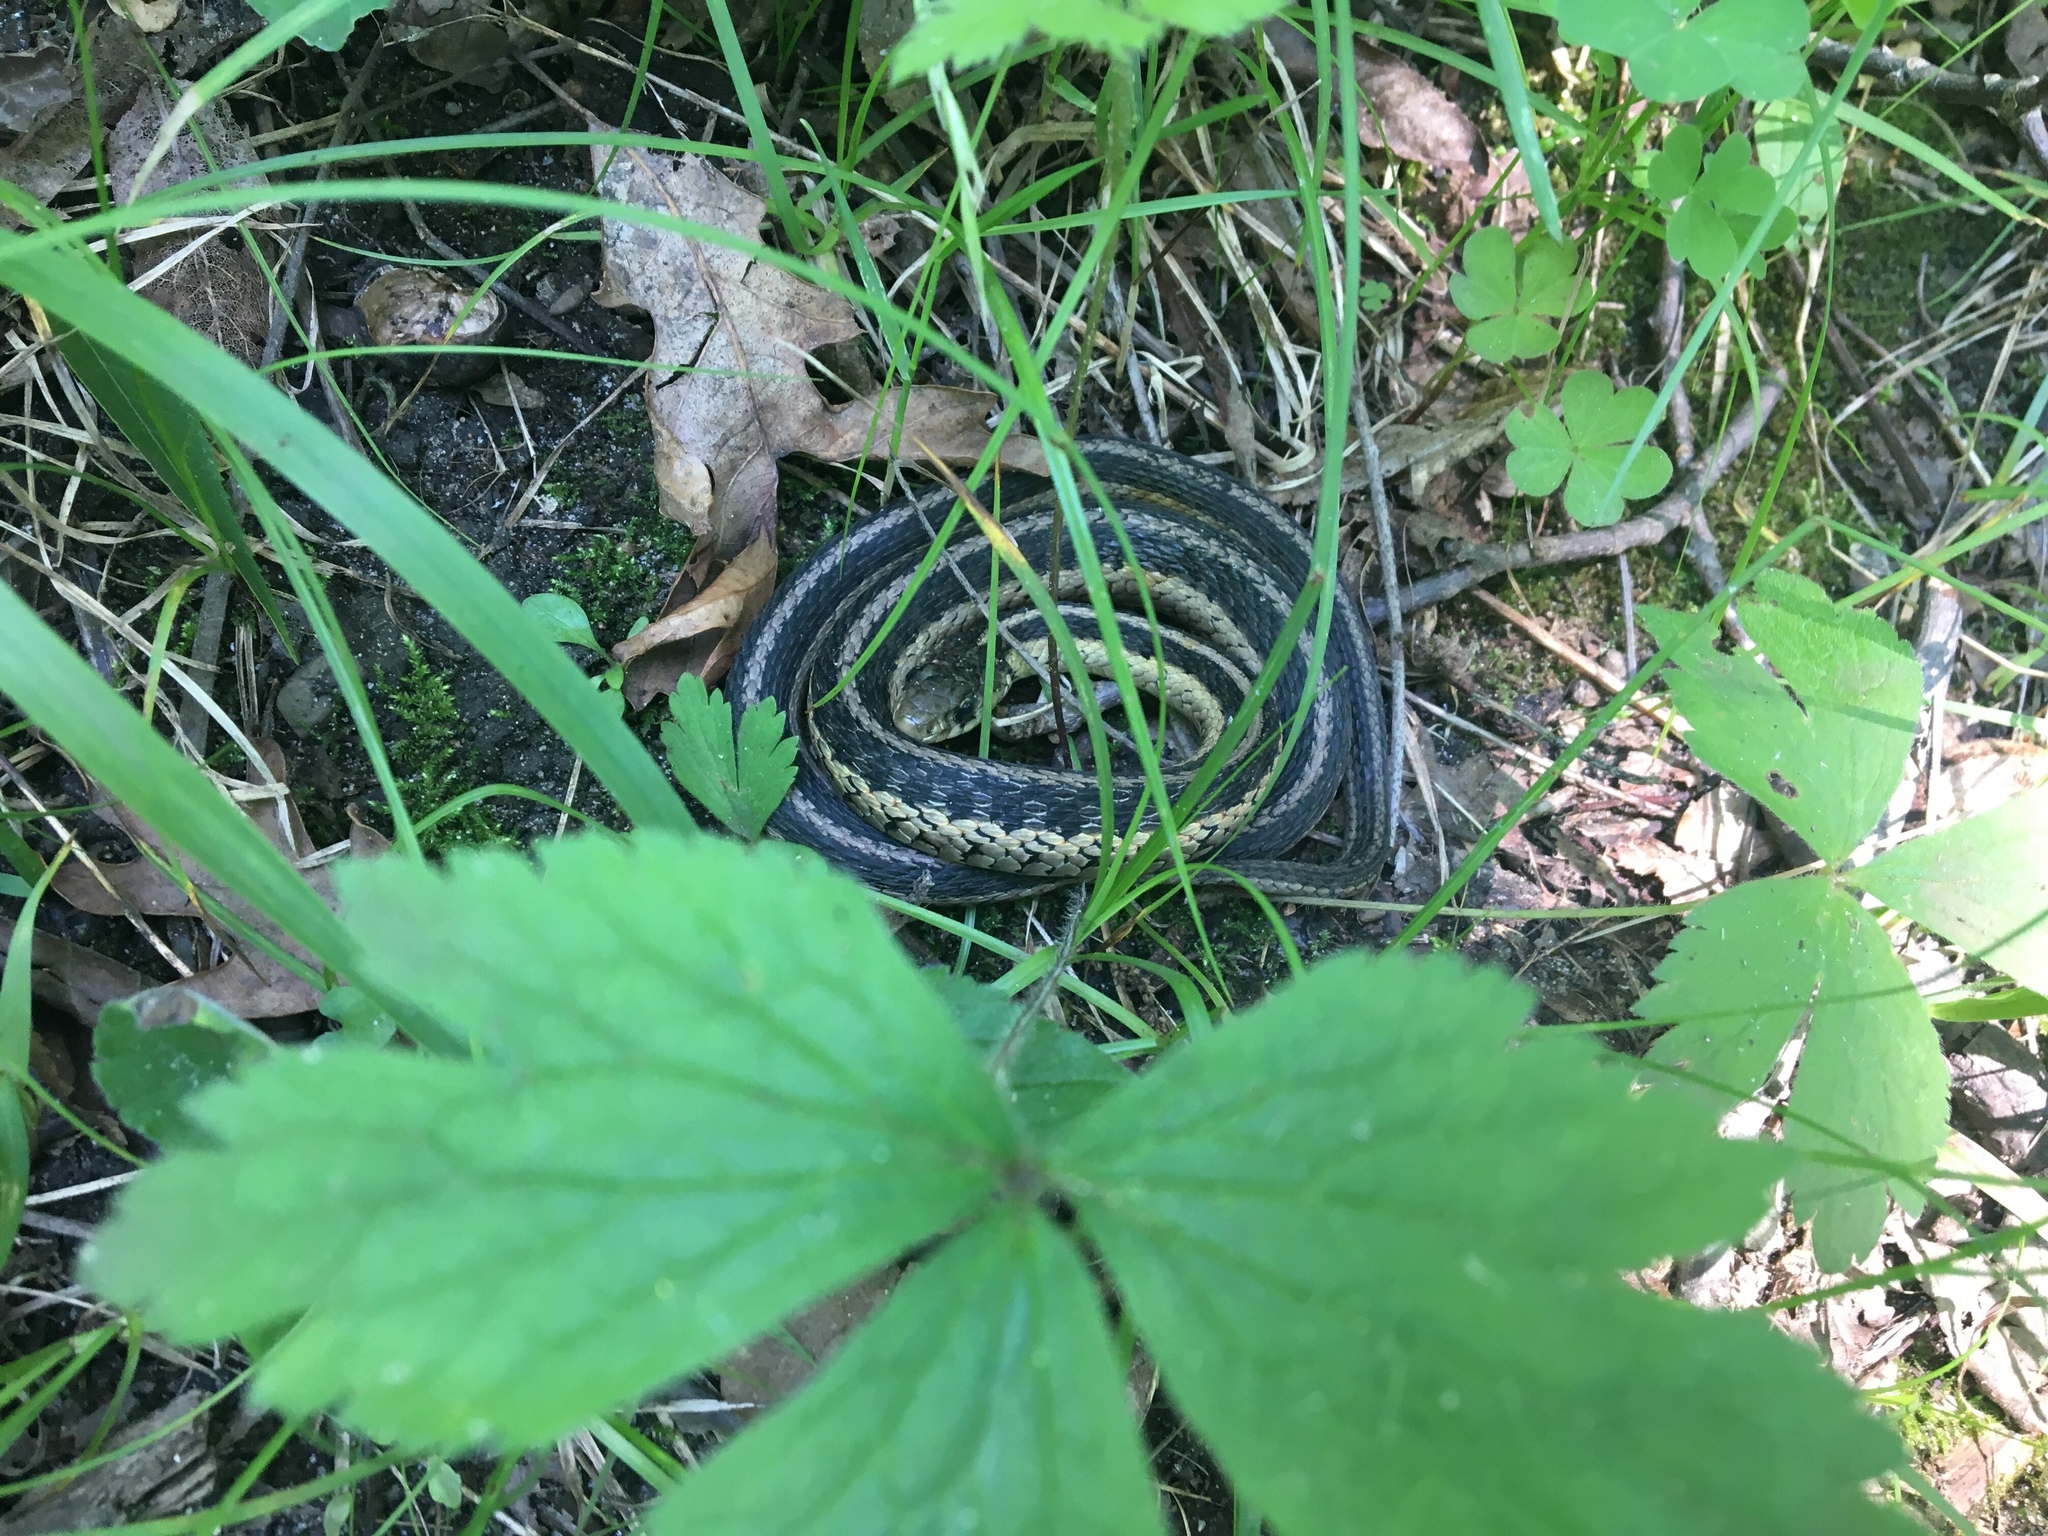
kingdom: Animalia
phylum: Chordata
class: Squamata
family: Colubridae
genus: Thamnophis
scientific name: Thamnophis sirtalis
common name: Common garter snake
